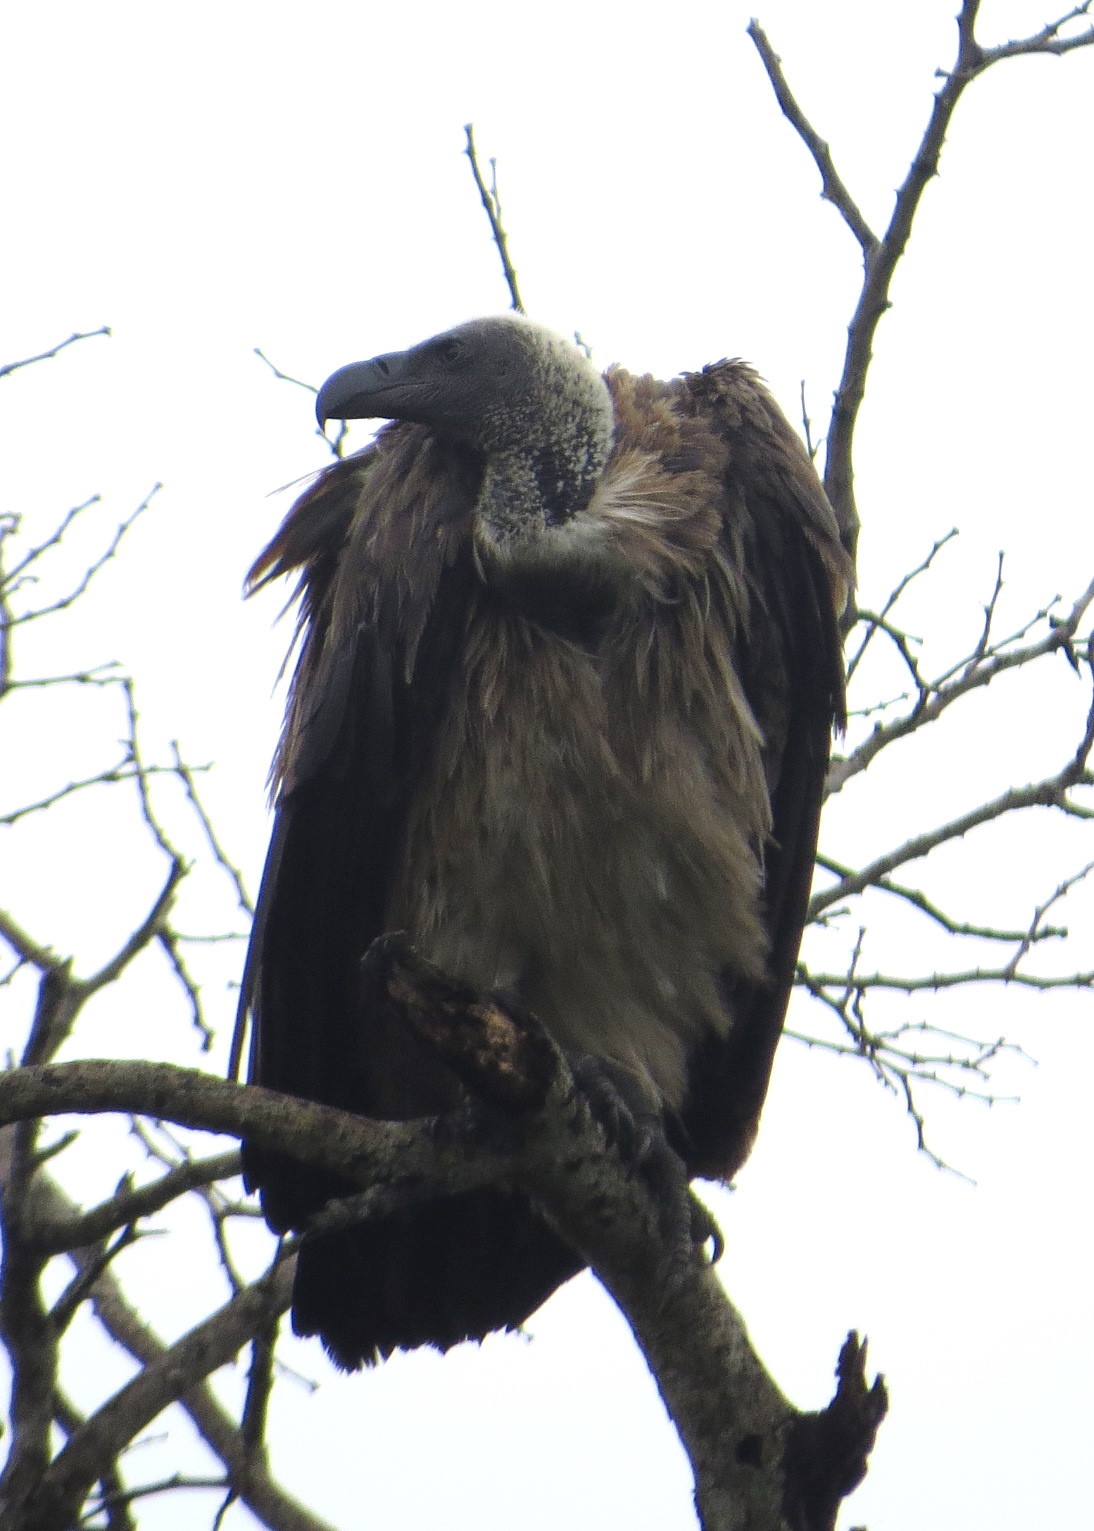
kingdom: Animalia
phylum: Chordata
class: Aves
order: Accipitriformes
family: Accipitridae
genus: Gyps
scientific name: Gyps africanus
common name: White-backed vulture
